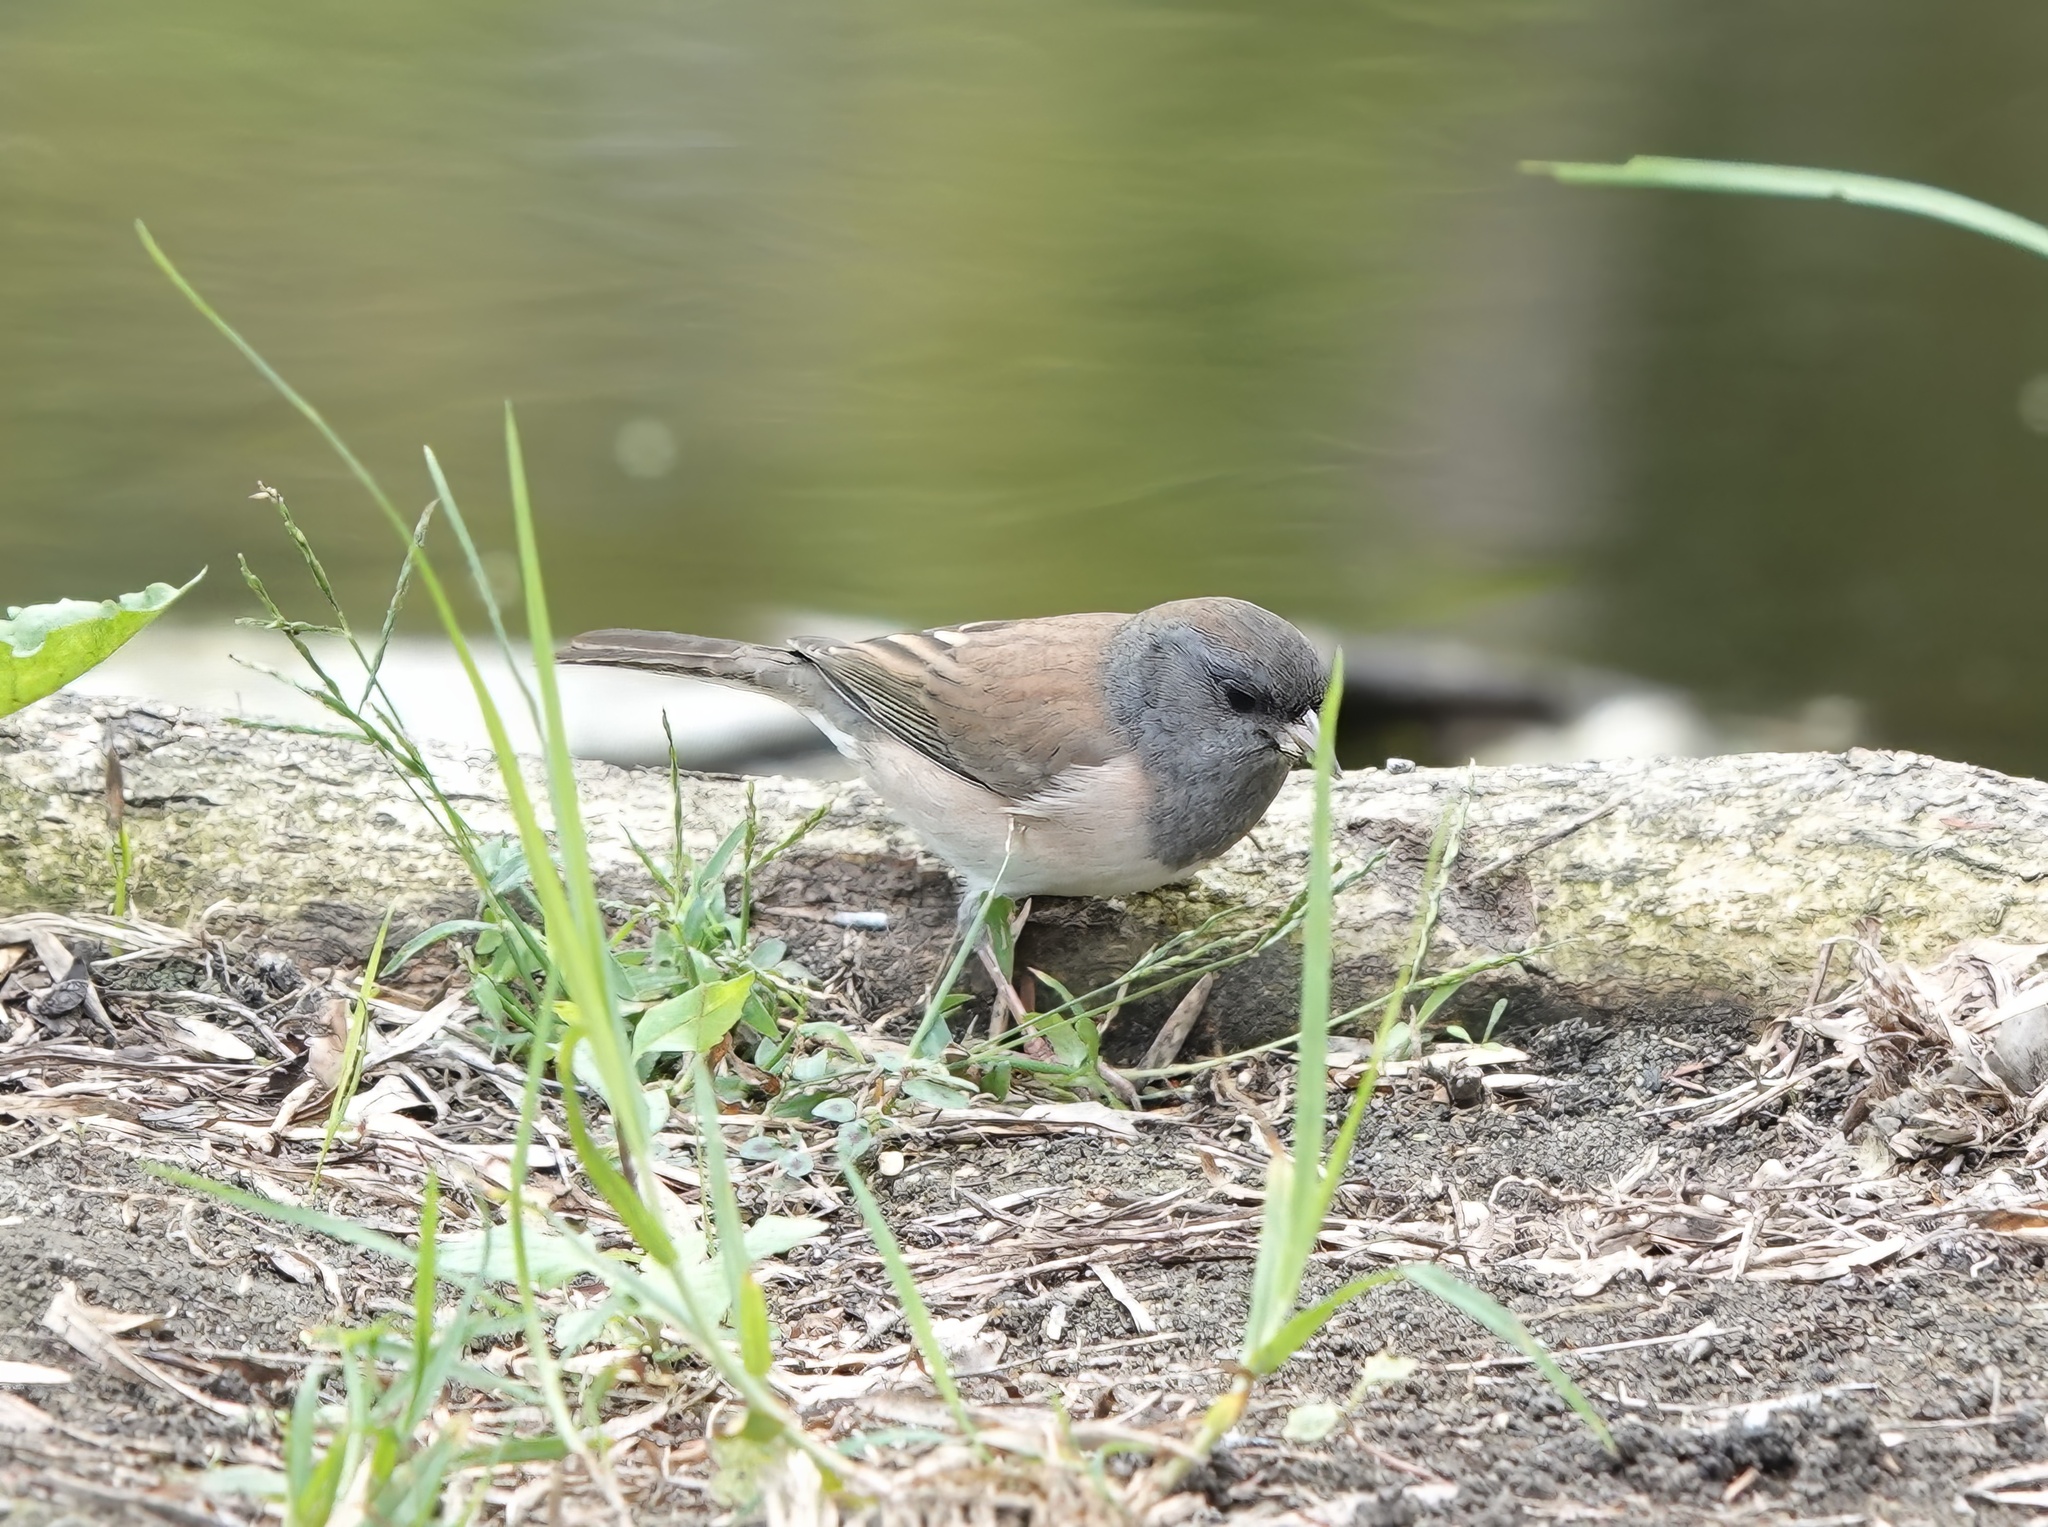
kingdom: Animalia
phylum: Chordata
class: Aves
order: Passeriformes
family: Passerellidae
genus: Junco
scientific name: Junco hyemalis
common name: Dark-eyed junco
